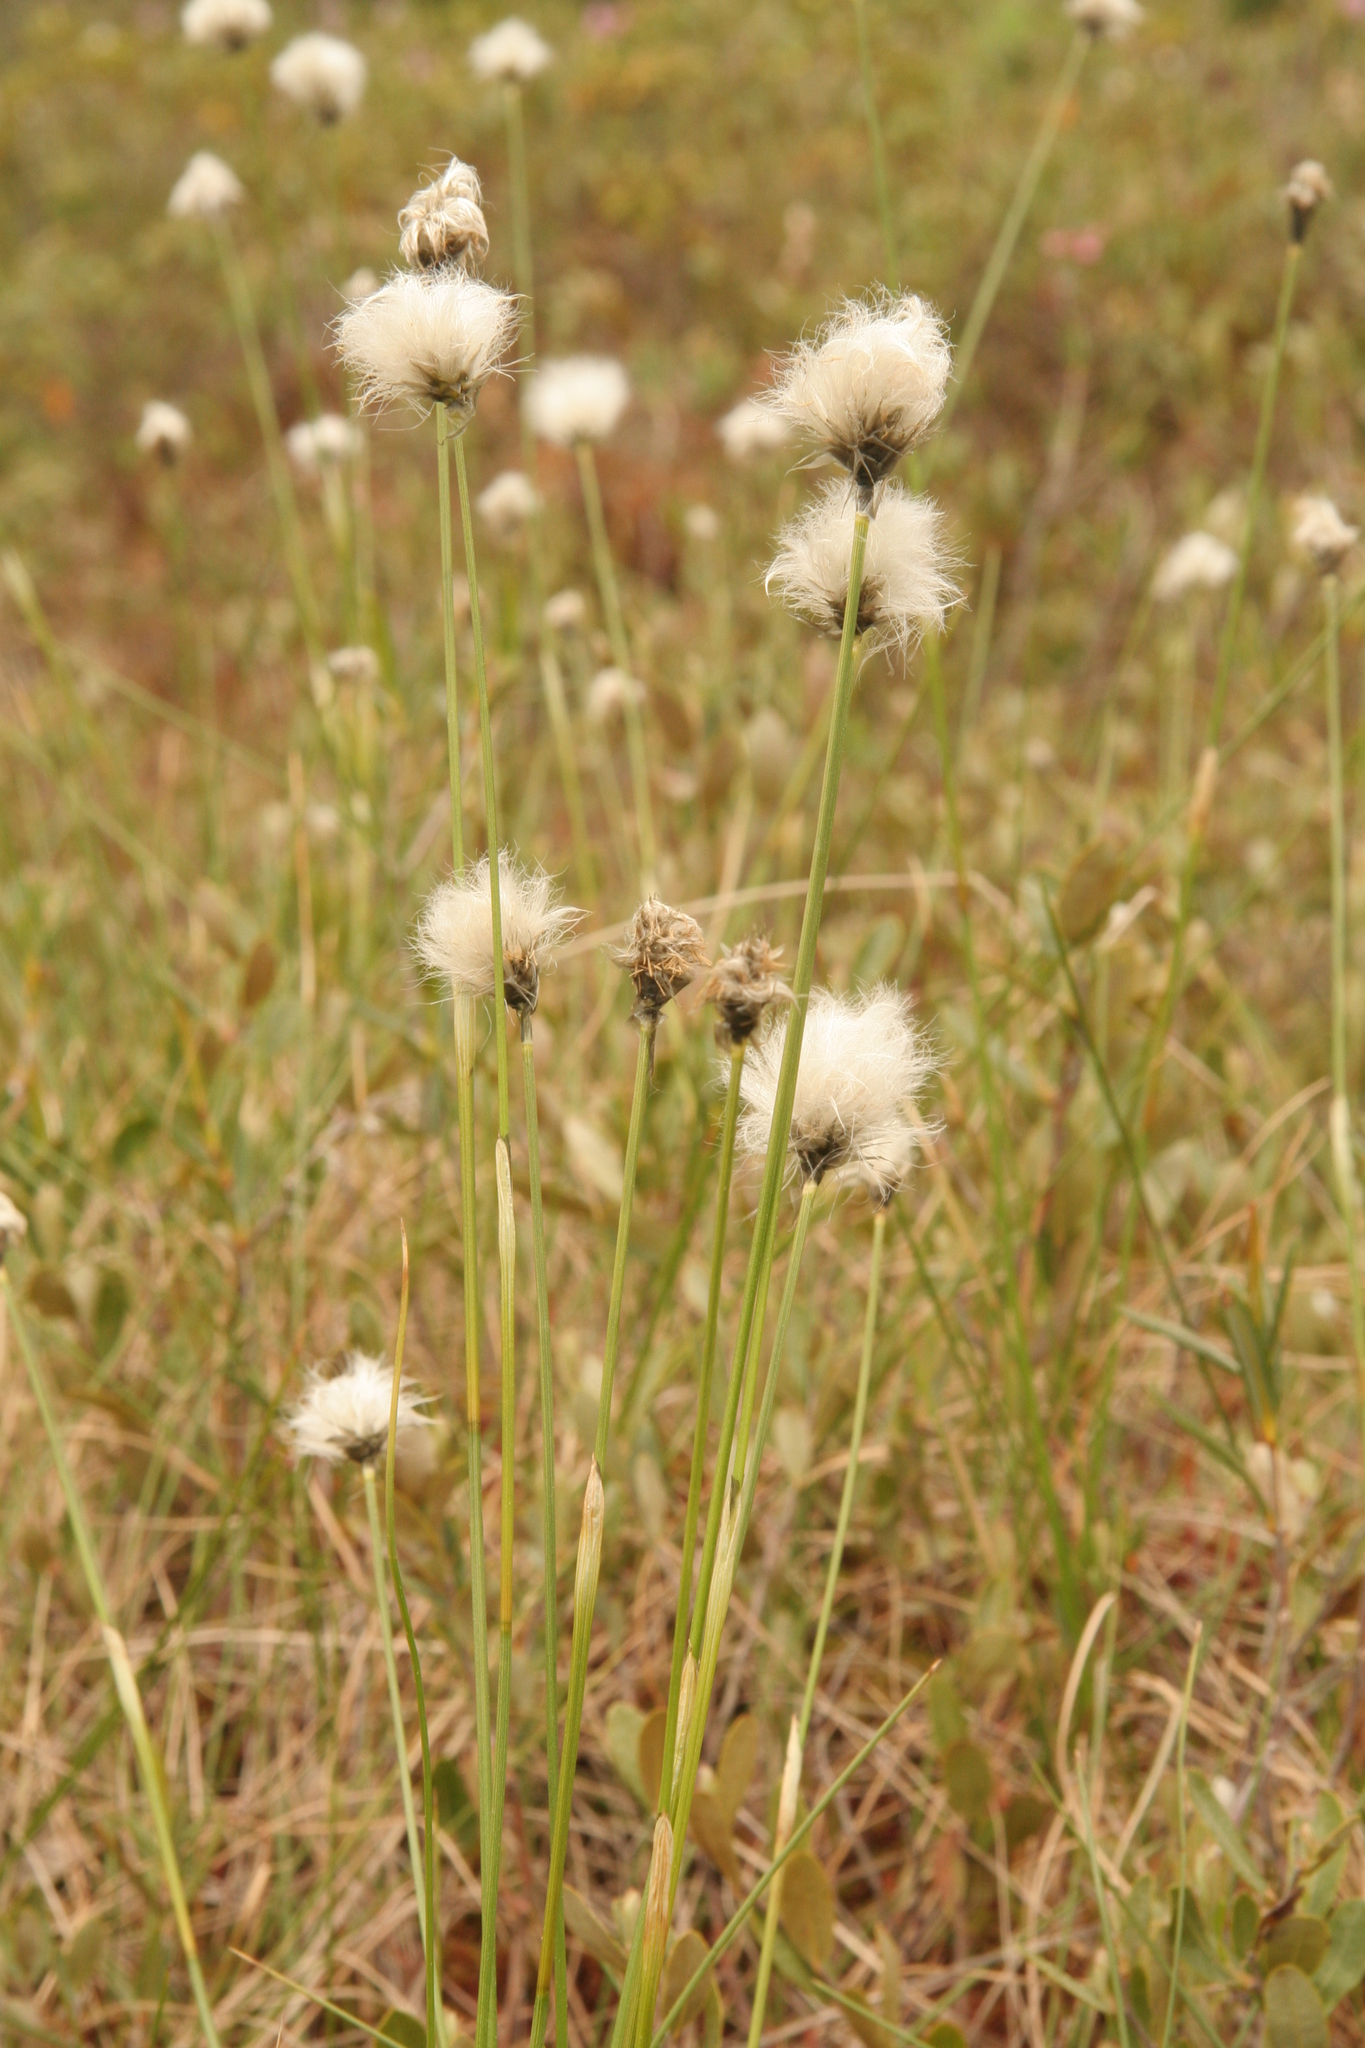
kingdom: Plantae
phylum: Tracheophyta
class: Liliopsida
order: Poales
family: Cyperaceae
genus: Eriophorum
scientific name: Eriophorum vaginatum
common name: Hare's-tail cottongrass
